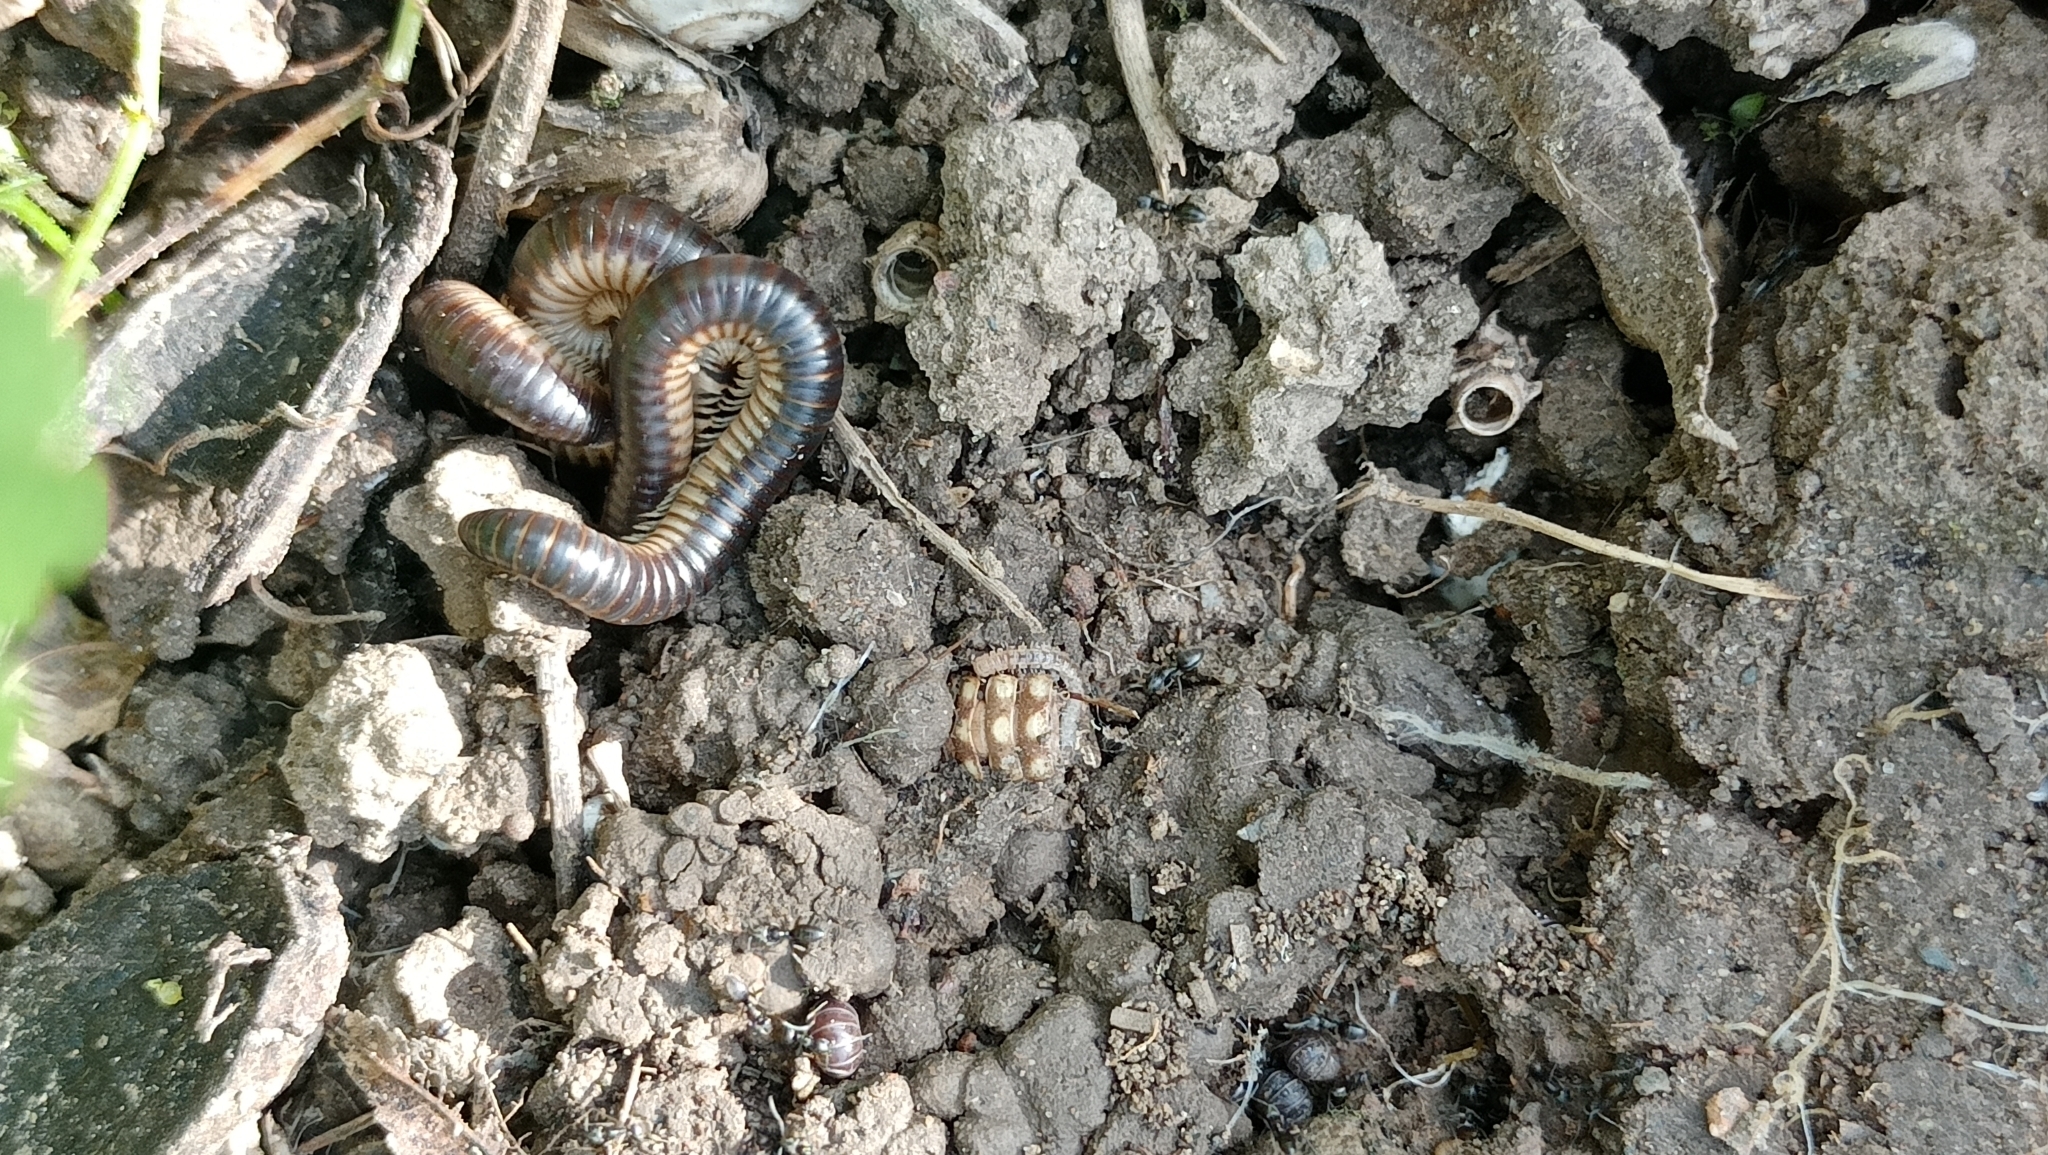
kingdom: Animalia
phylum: Arthropoda
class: Diplopoda
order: Julida
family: Julidae
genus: Pachyiulus
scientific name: Pachyiulus flavipes
